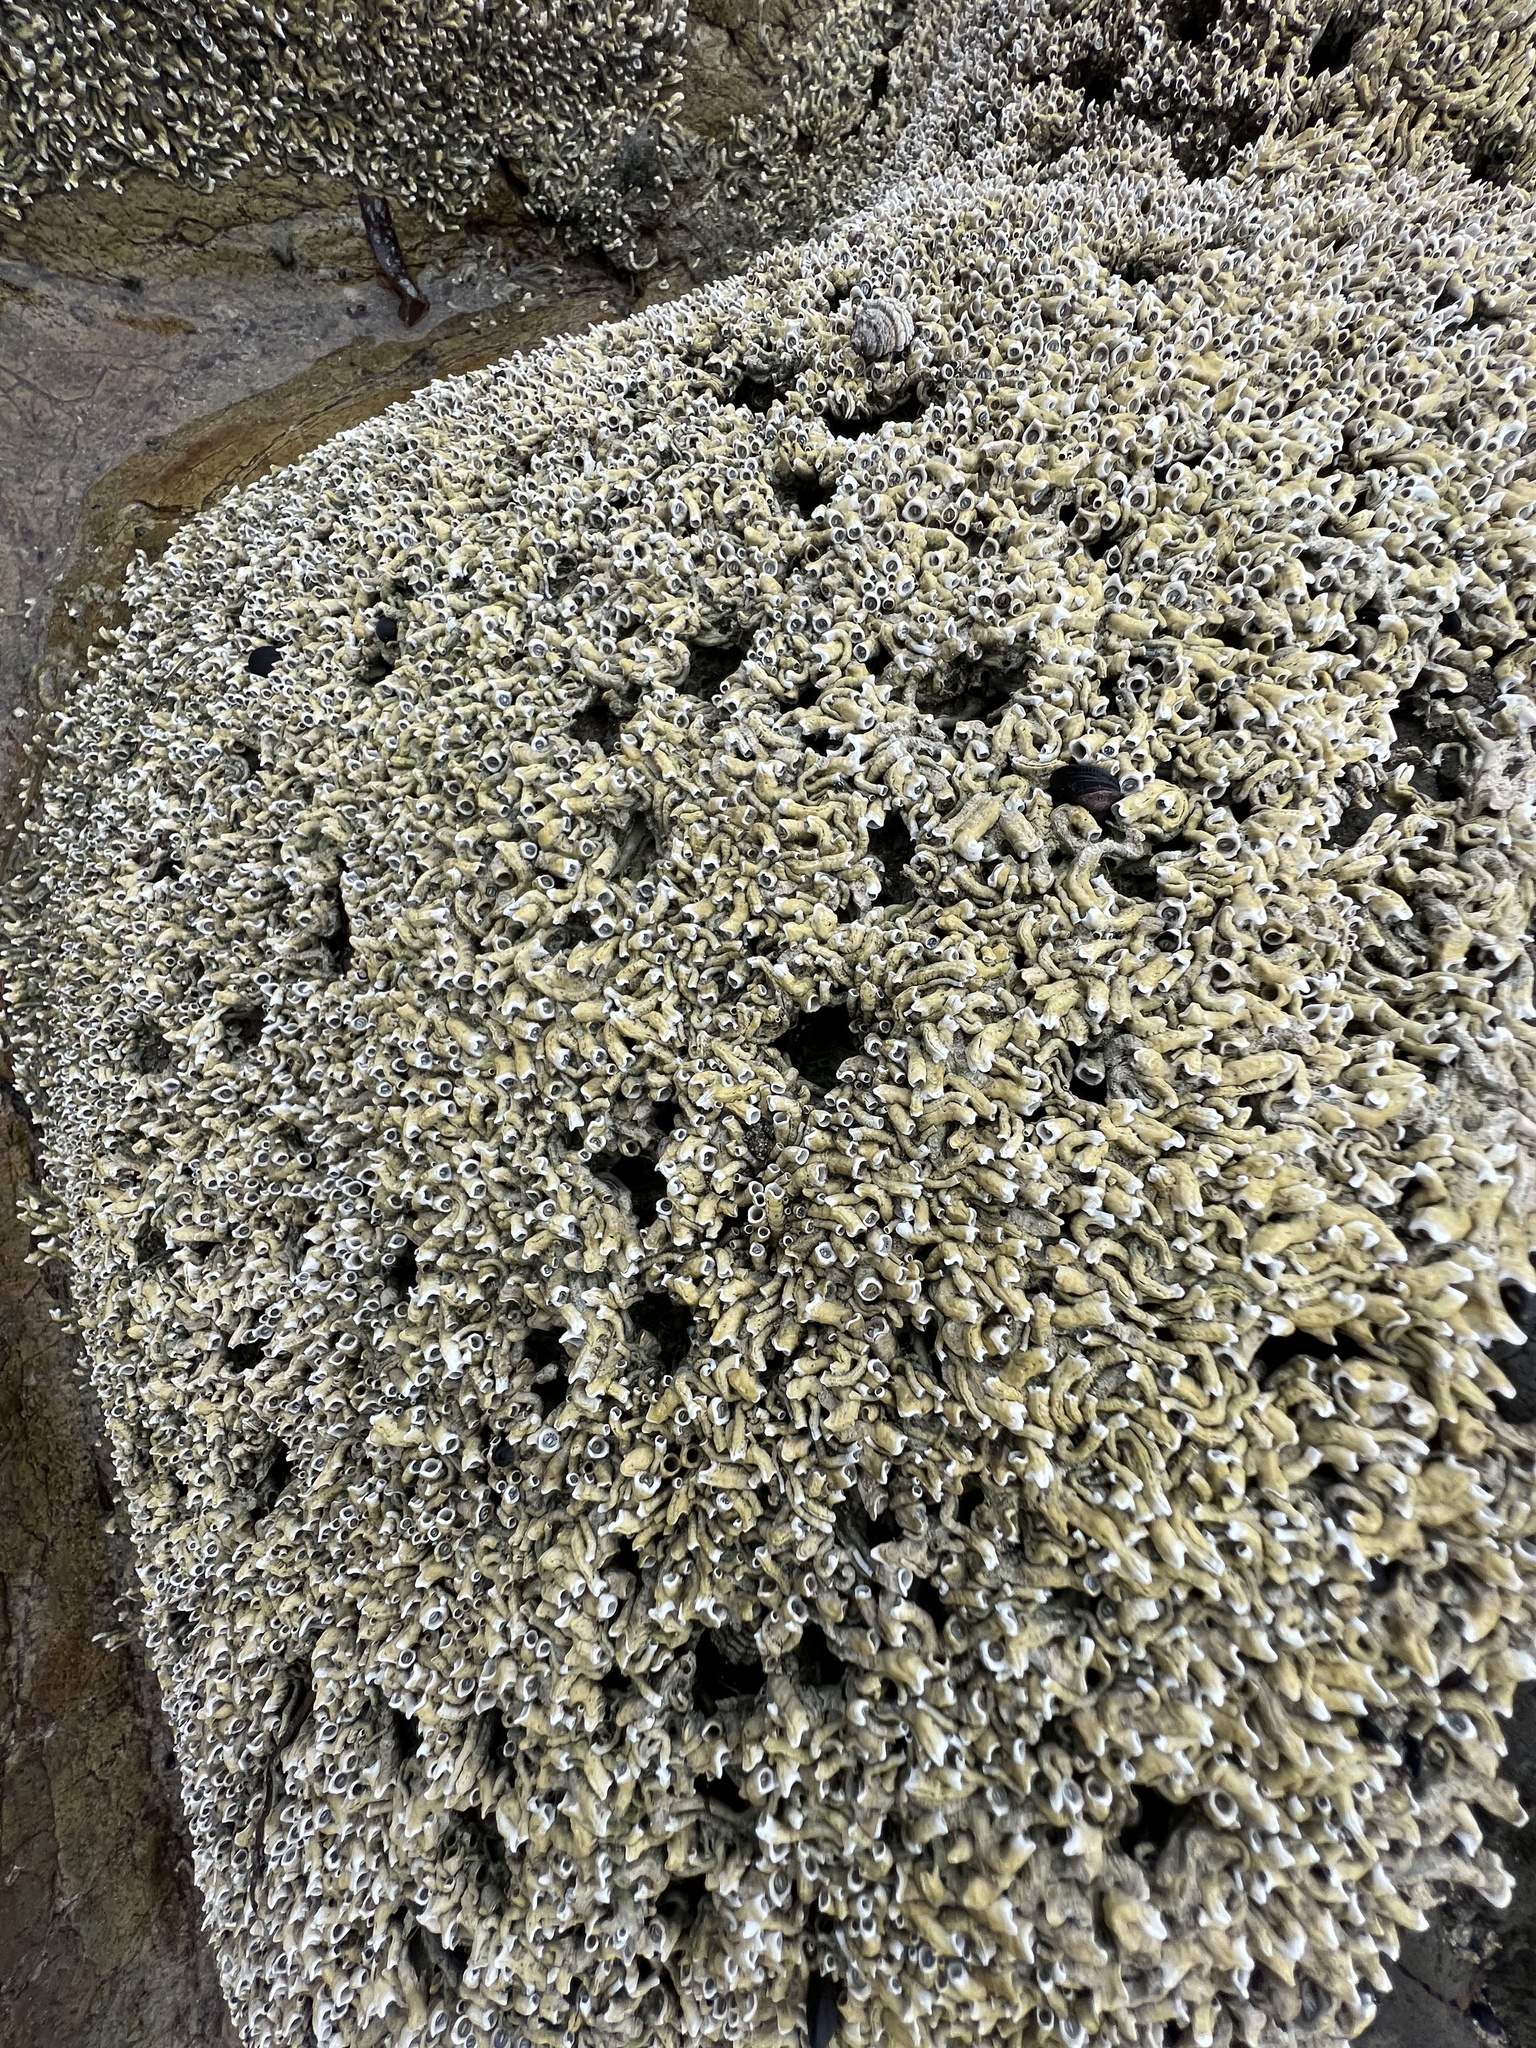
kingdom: Animalia
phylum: Annelida
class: Polychaeta
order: Sabellida
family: Serpulidae
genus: Galeolaria
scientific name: Galeolaria caespitosa
